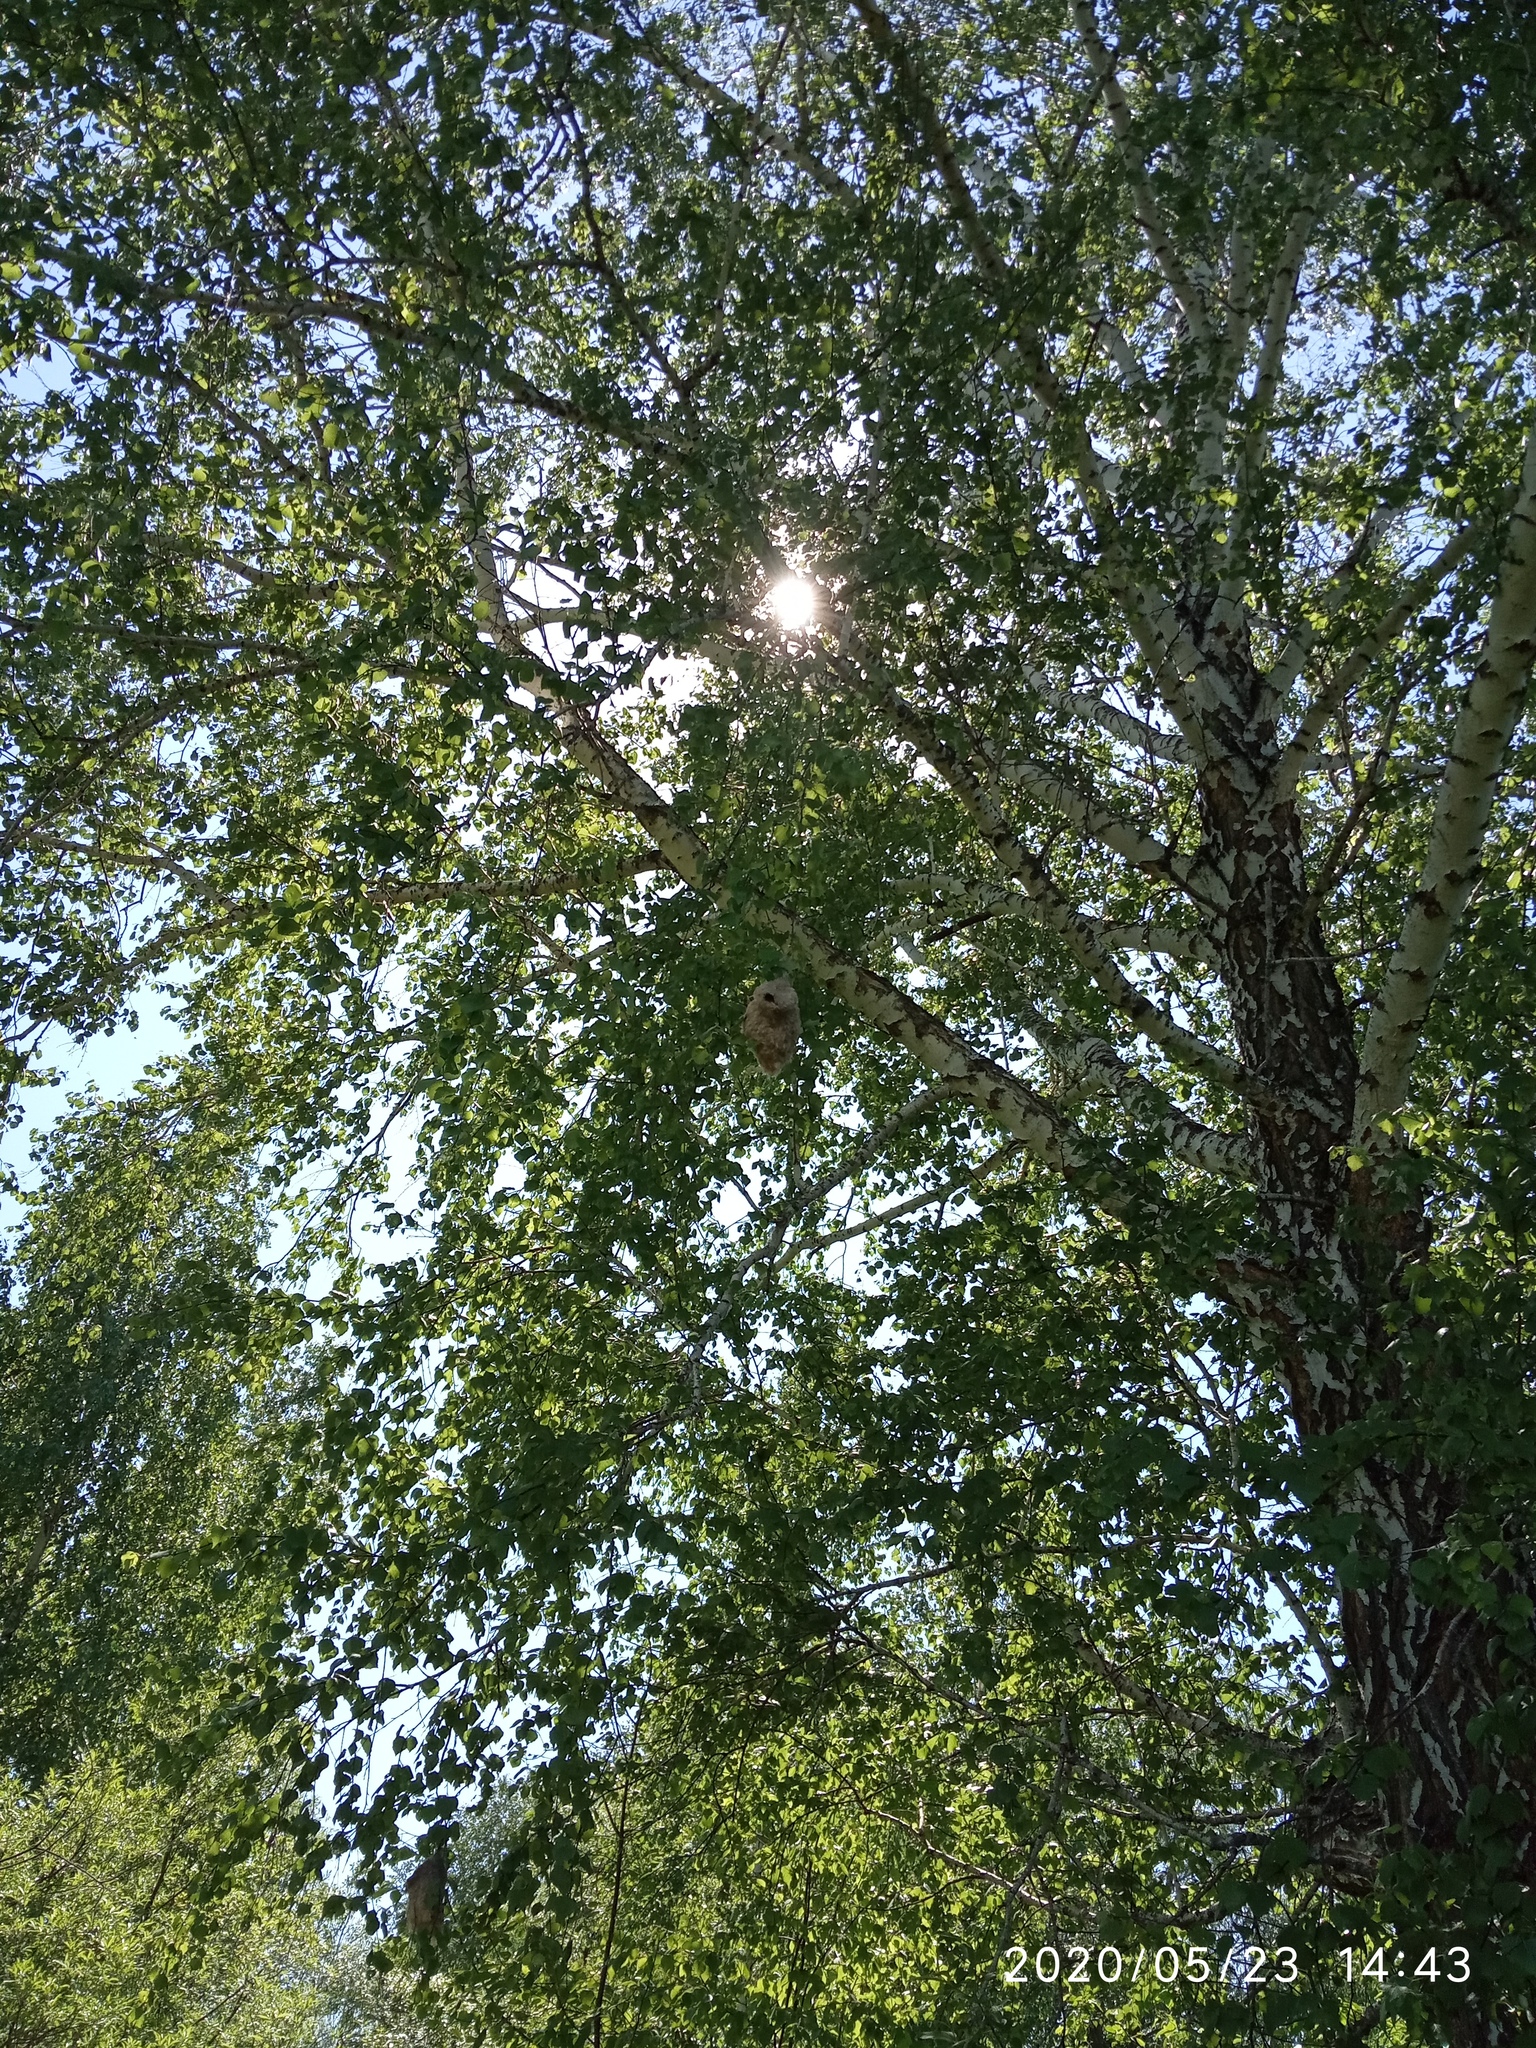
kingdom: Animalia
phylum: Chordata
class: Aves
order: Passeriformes
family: Remizidae
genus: Remiz
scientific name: Remiz pendulinus
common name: Eurasian penduline tit
